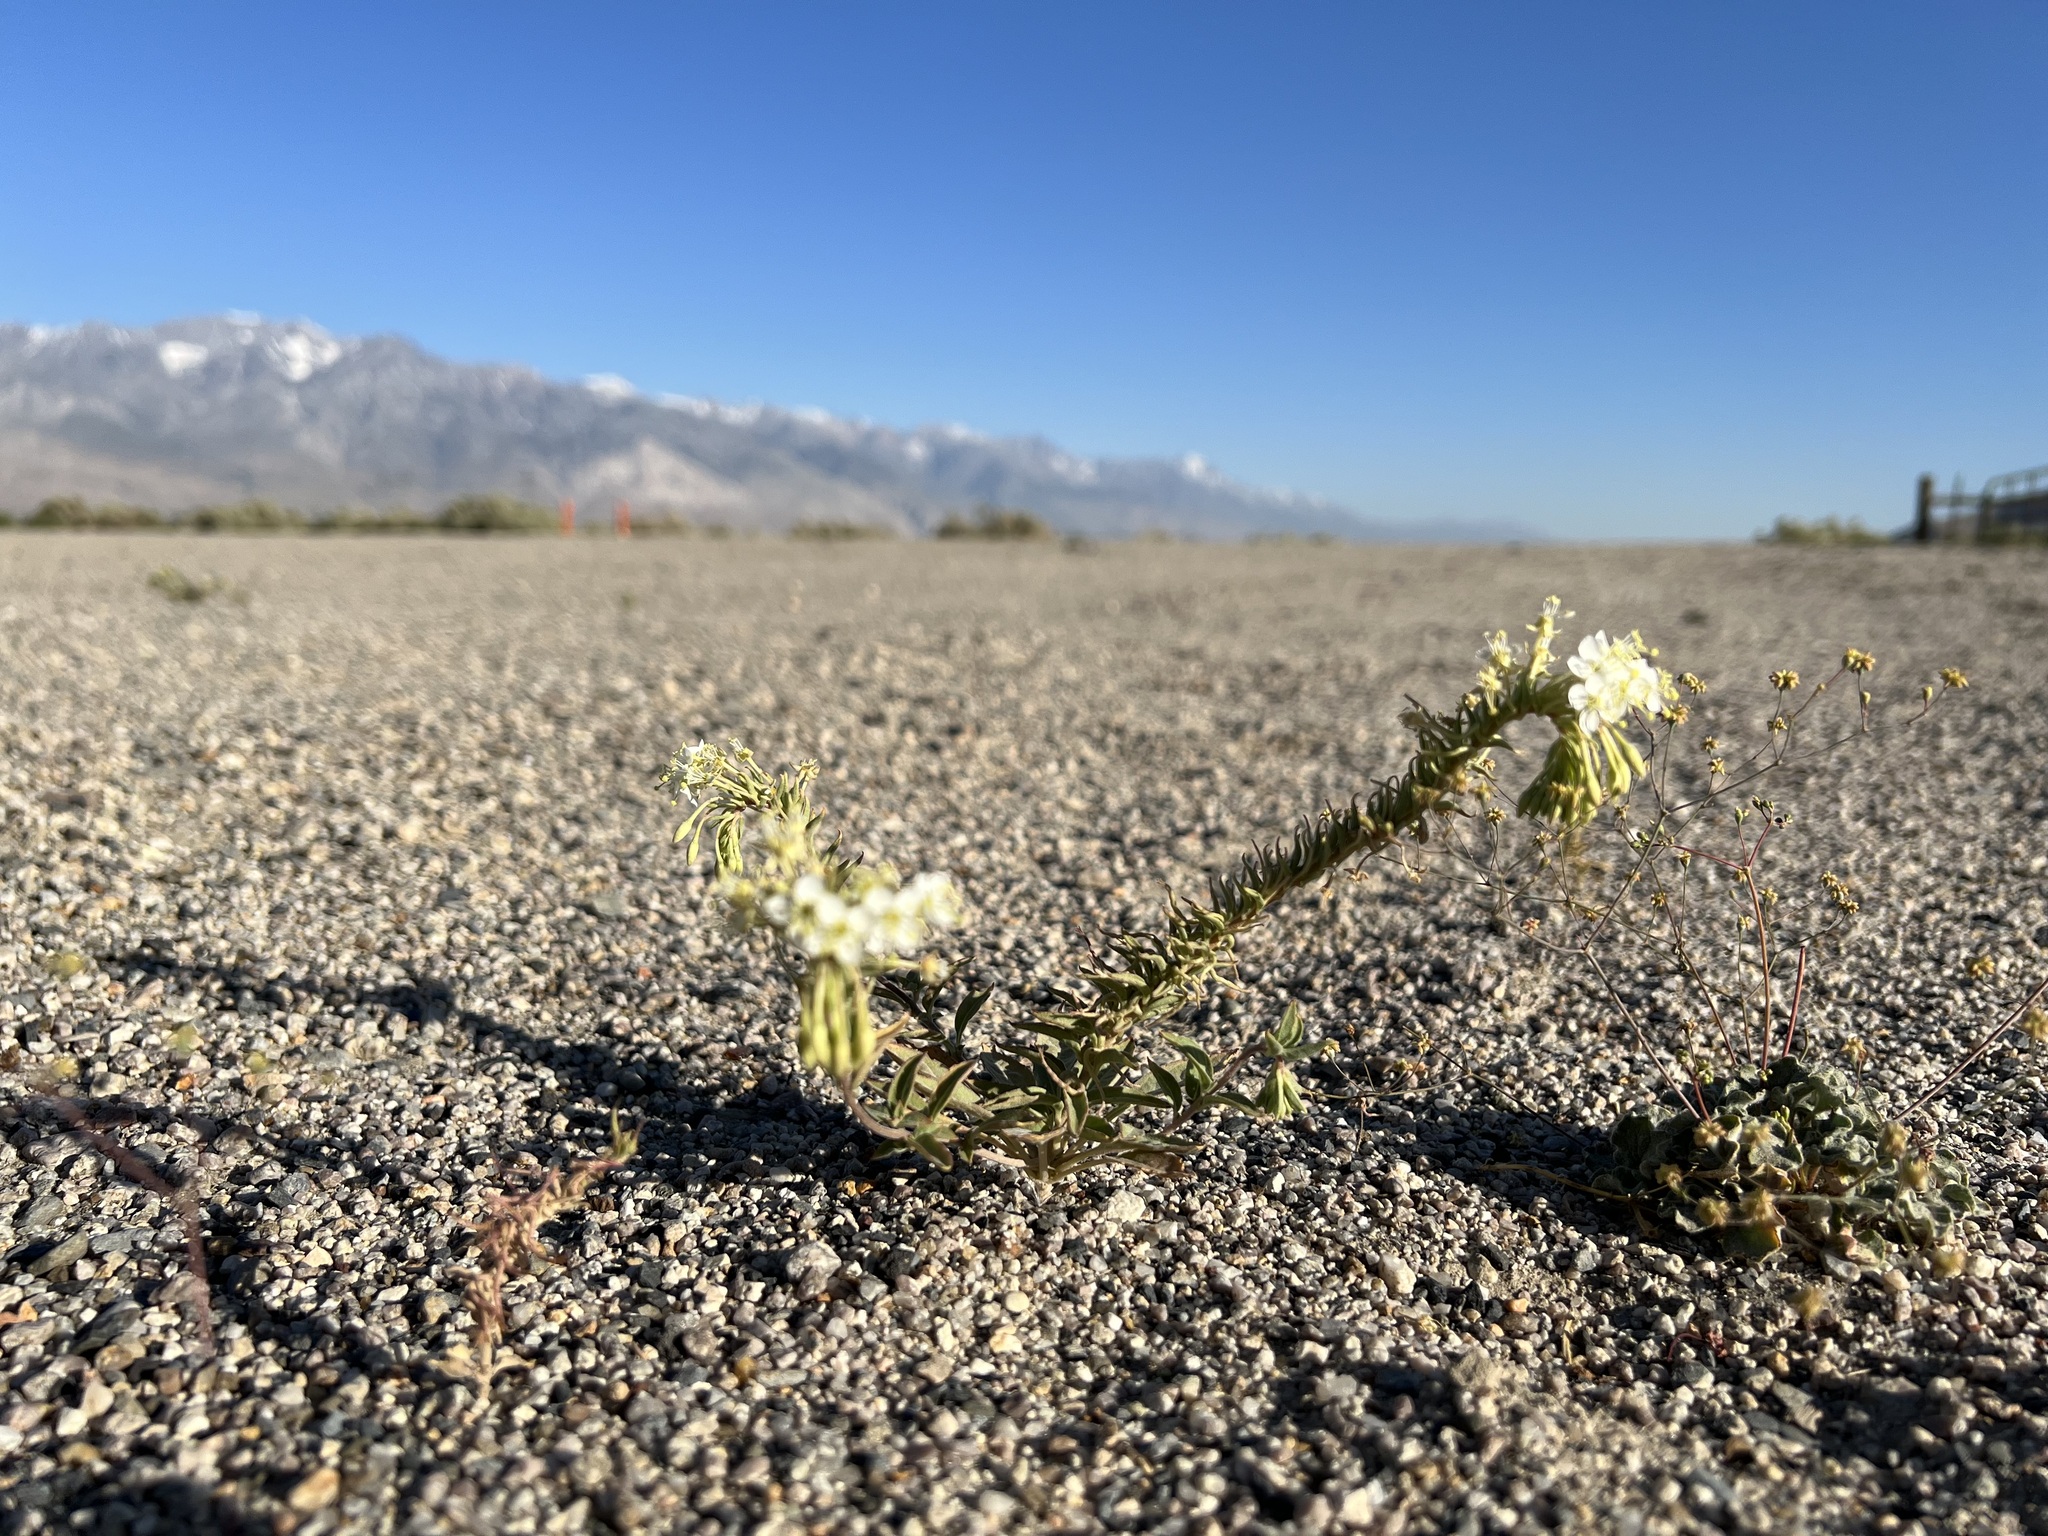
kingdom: Plantae
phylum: Tracheophyta
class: Magnoliopsida
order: Myrtales
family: Onagraceae
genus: Eremothera
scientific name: Eremothera boothii
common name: Booth's evening primrose
